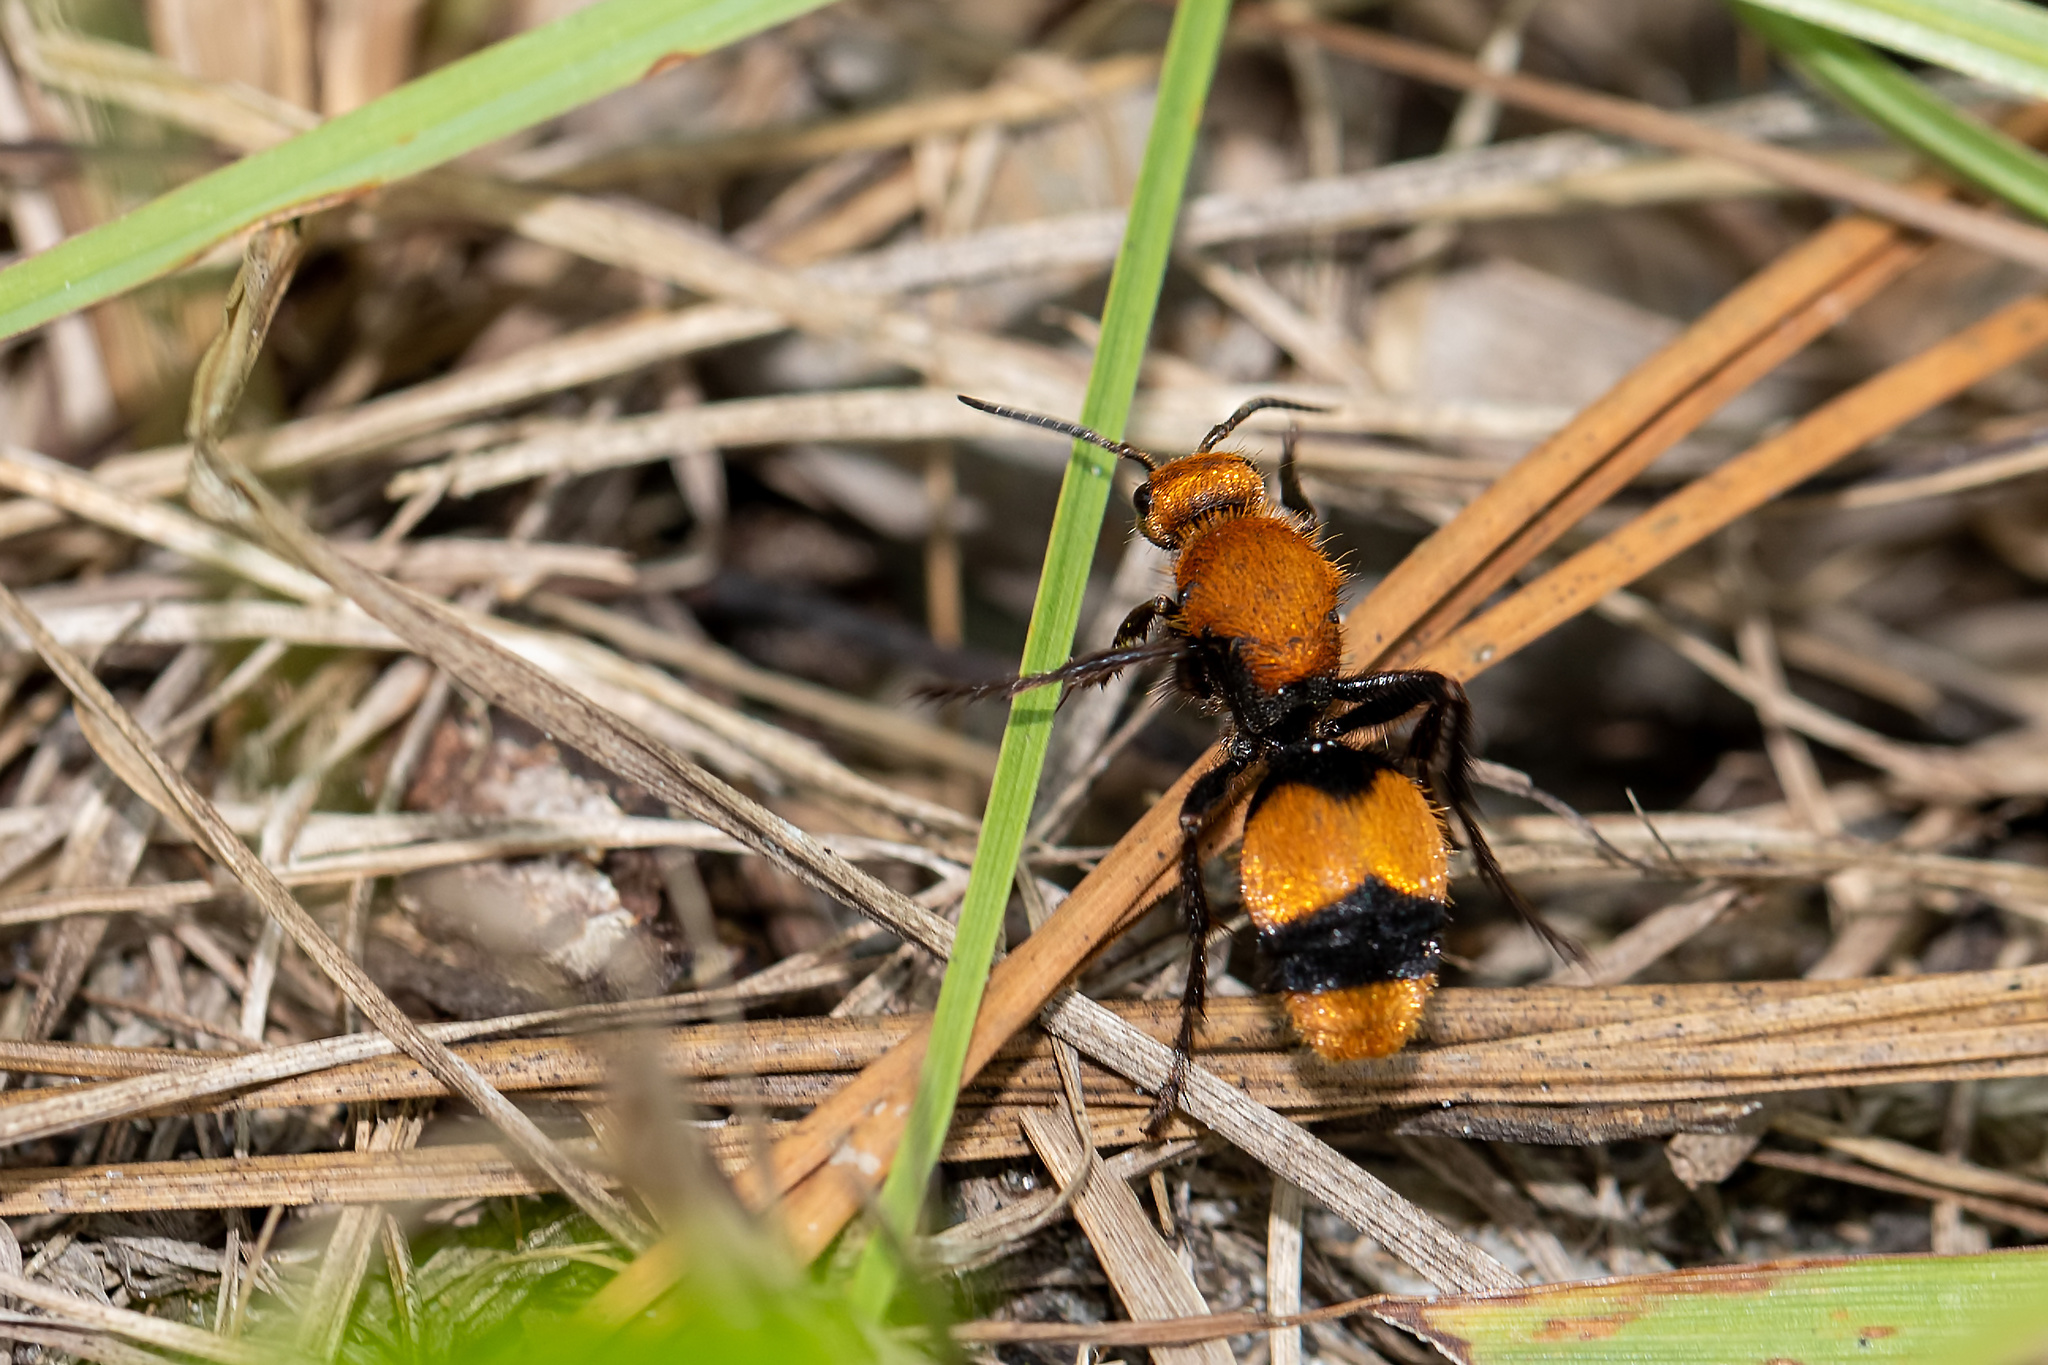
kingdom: Animalia
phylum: Arthropoda
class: Insecta
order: Hymenoptera
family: Mutillidae
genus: Dasymutilla
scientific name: Dasymutilla occidentalis
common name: Common eastern velvet ant
